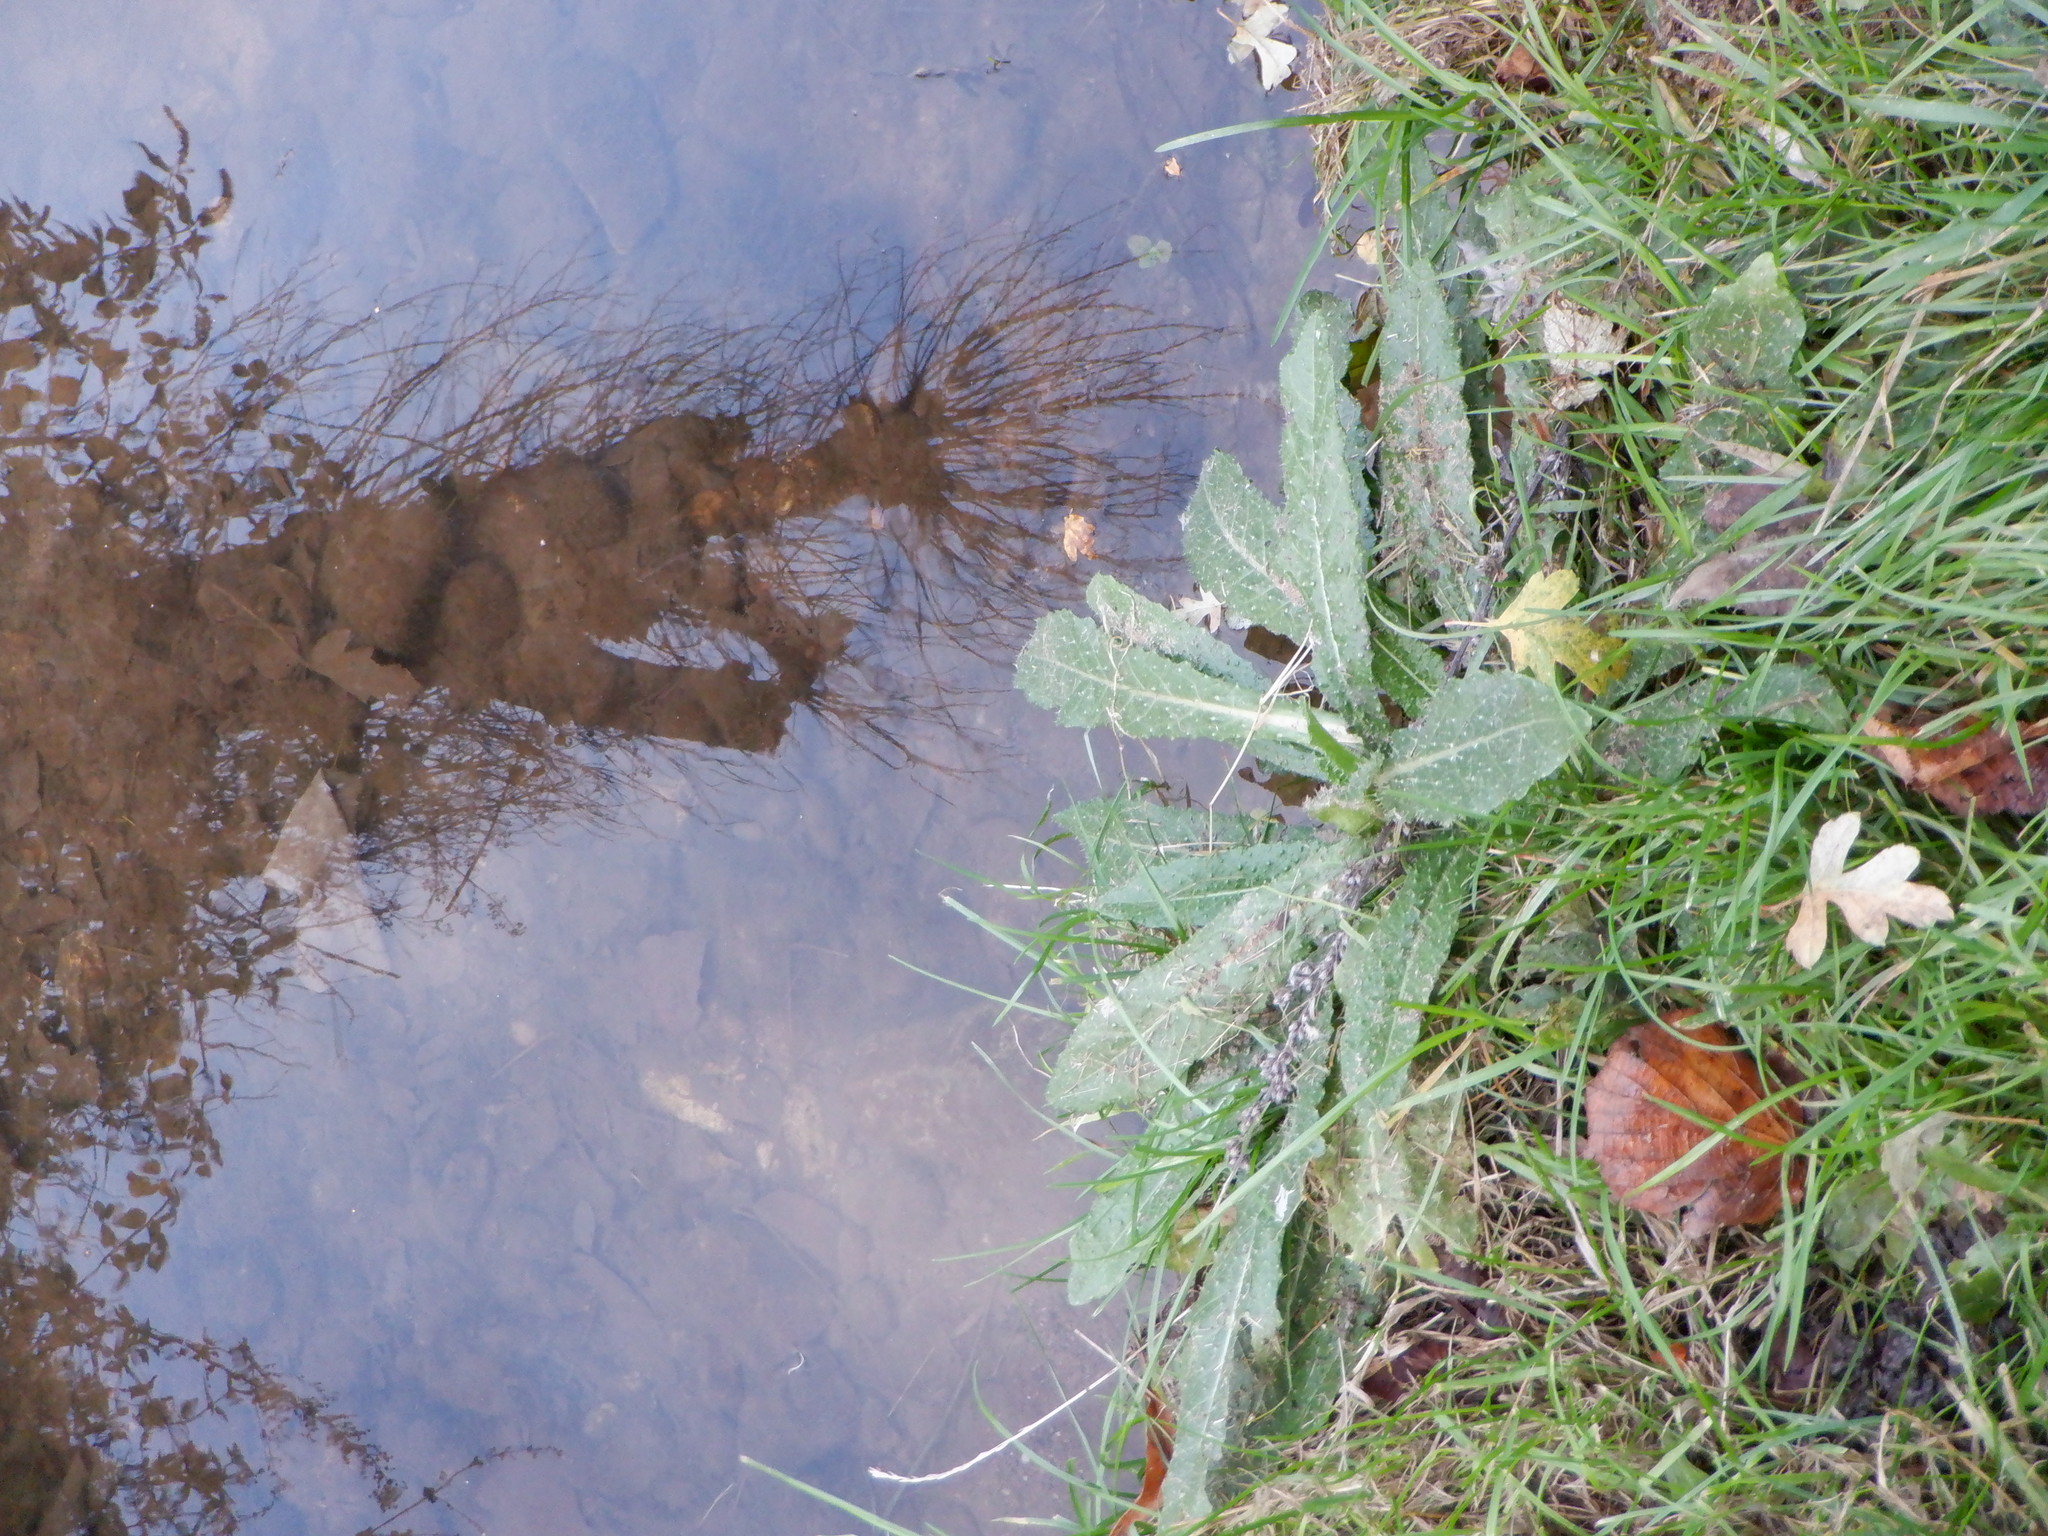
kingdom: Plantae
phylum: Tracheophyta
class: Magnoliopsida
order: Asterales
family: Asteraceae
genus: Helminthotheca
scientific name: Helminthotheca echioides
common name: Ox-tongue
